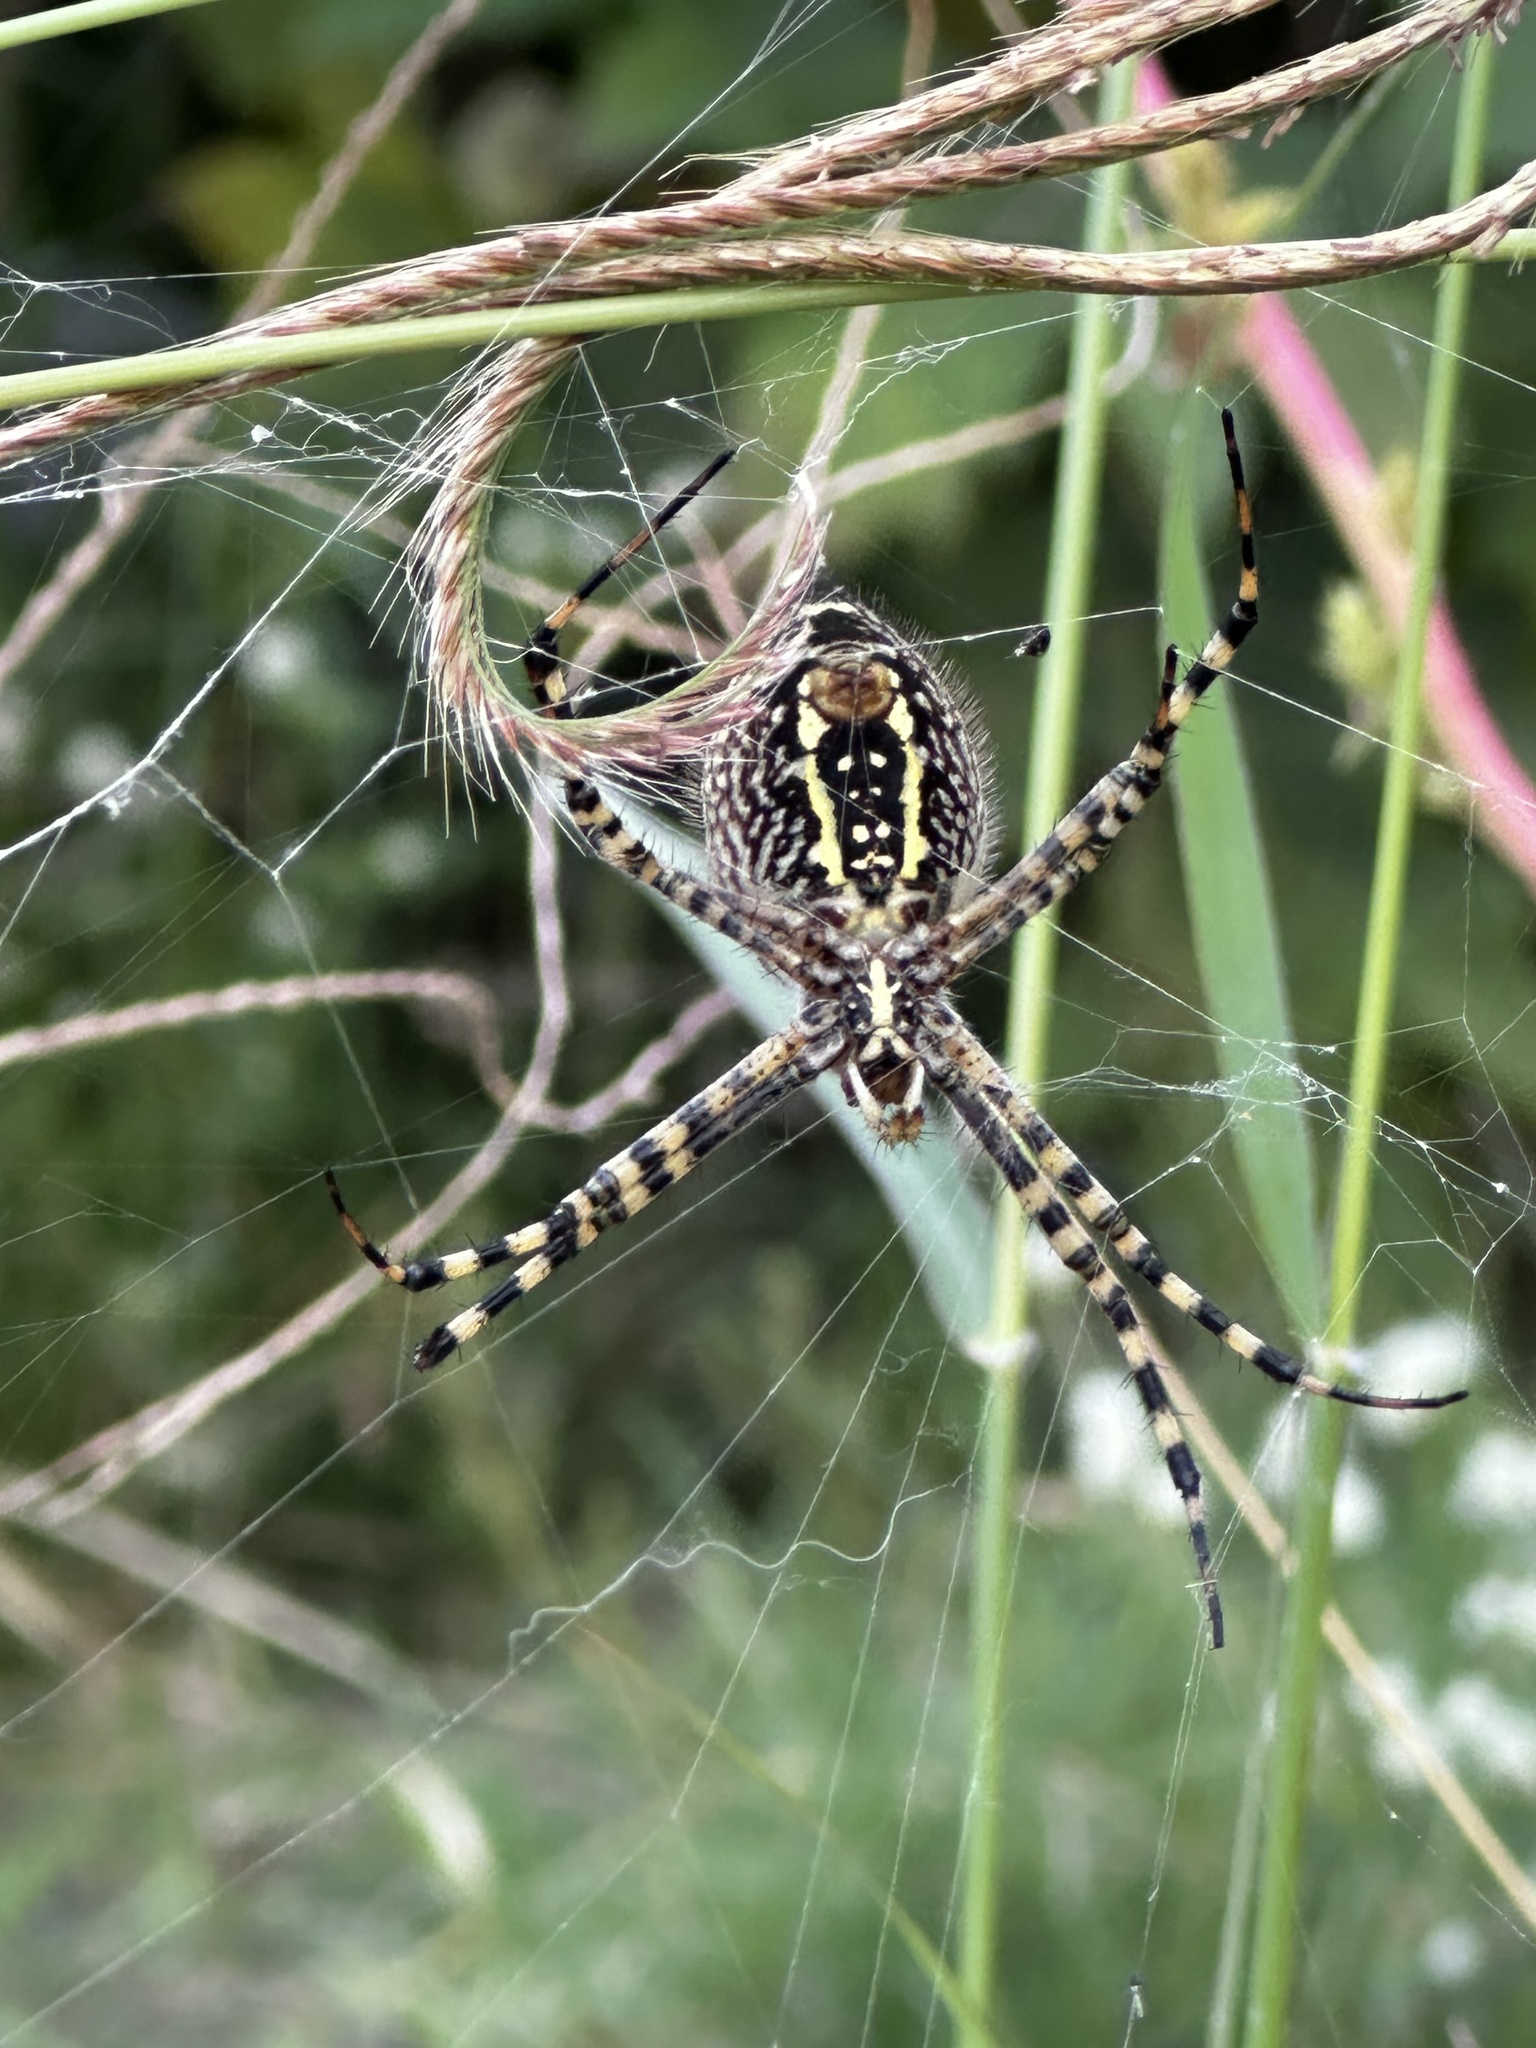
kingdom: Animalia
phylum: Arthropoda
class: Arachnida
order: Araneae
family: Araneidae
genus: Argiope
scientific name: Argiope trifasciata
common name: Banded garden spider
